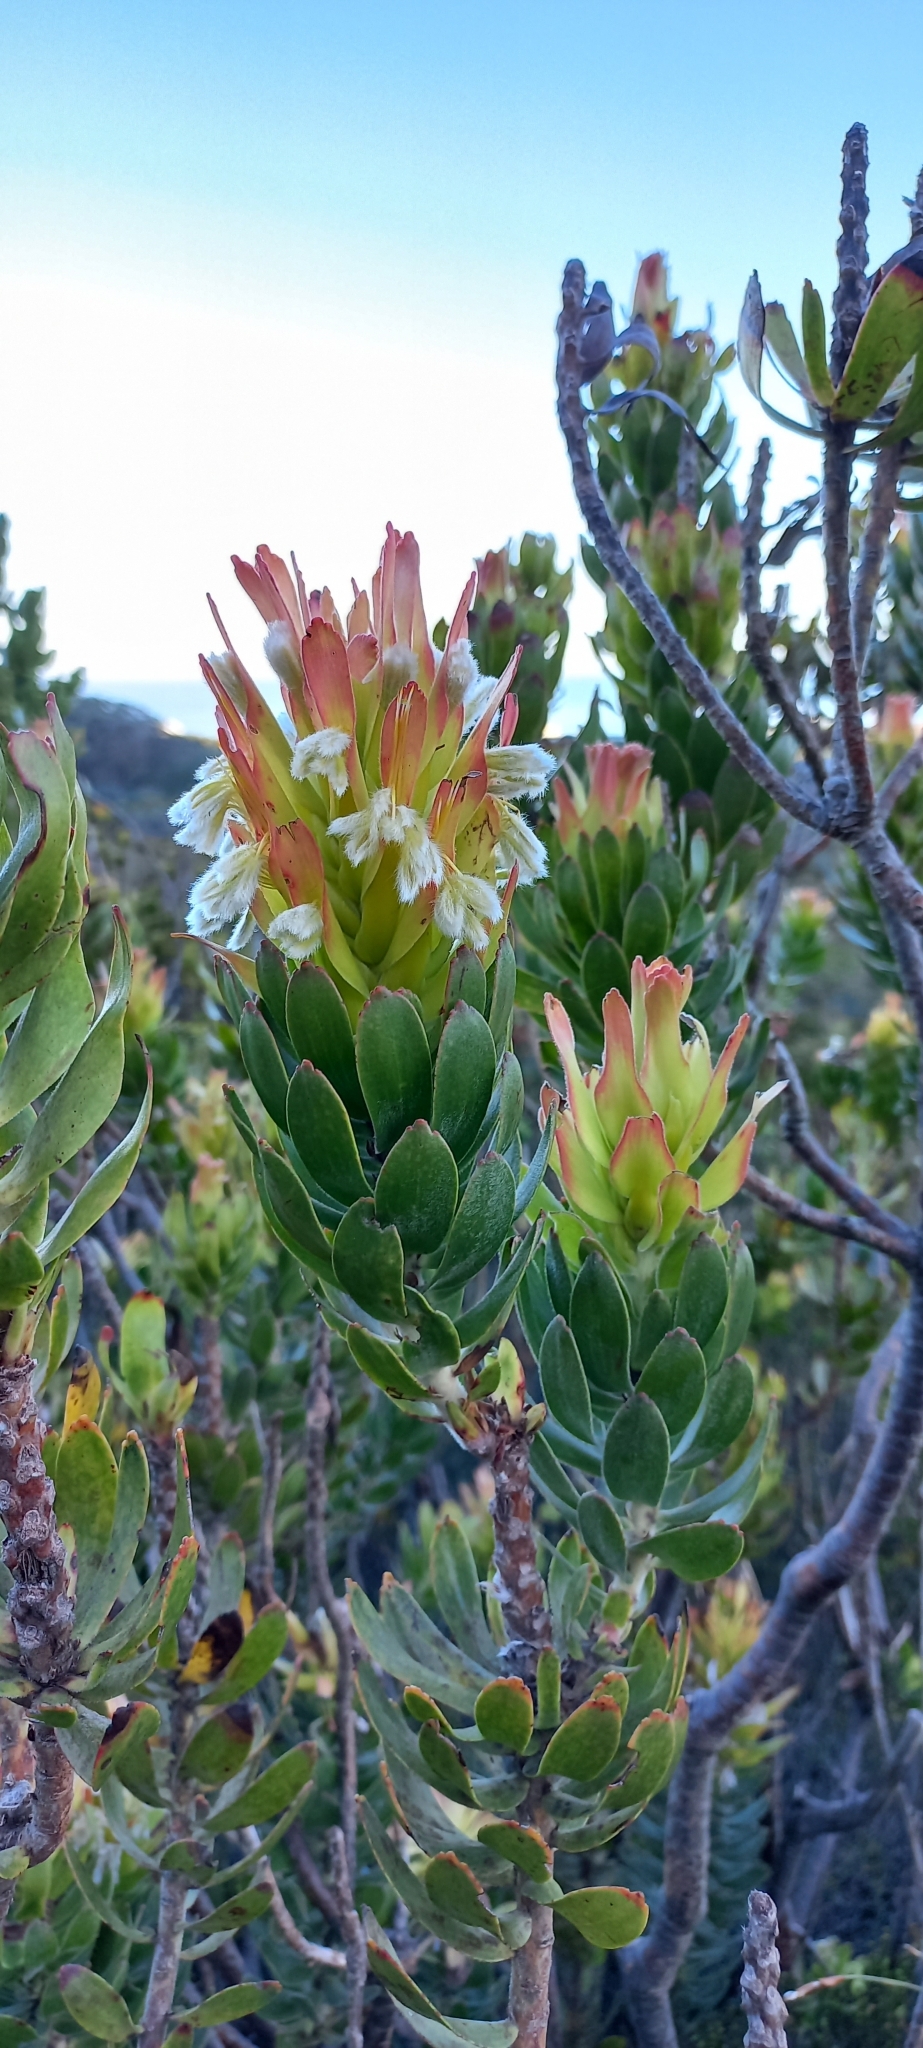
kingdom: Plantae
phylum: Tracheophyta
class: Magnoliopsida
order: Proteales
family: Proteaceae
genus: Mimetes
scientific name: Mimetes cucullatus
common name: Common pagoda
